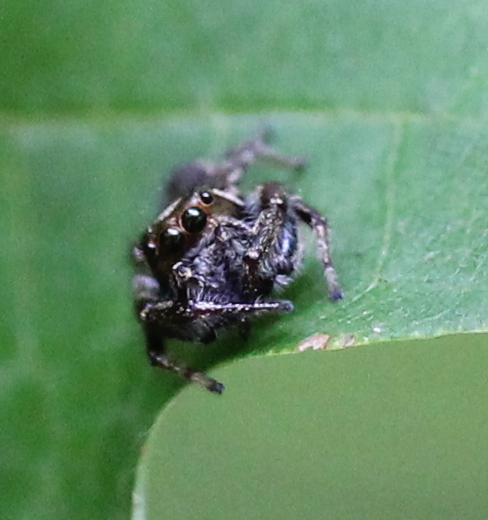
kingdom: Animalia
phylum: Arthropoda
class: Arachnida
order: Araneae
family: Salticidae
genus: Eris
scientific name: Eris militaris
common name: Bronze jumper
